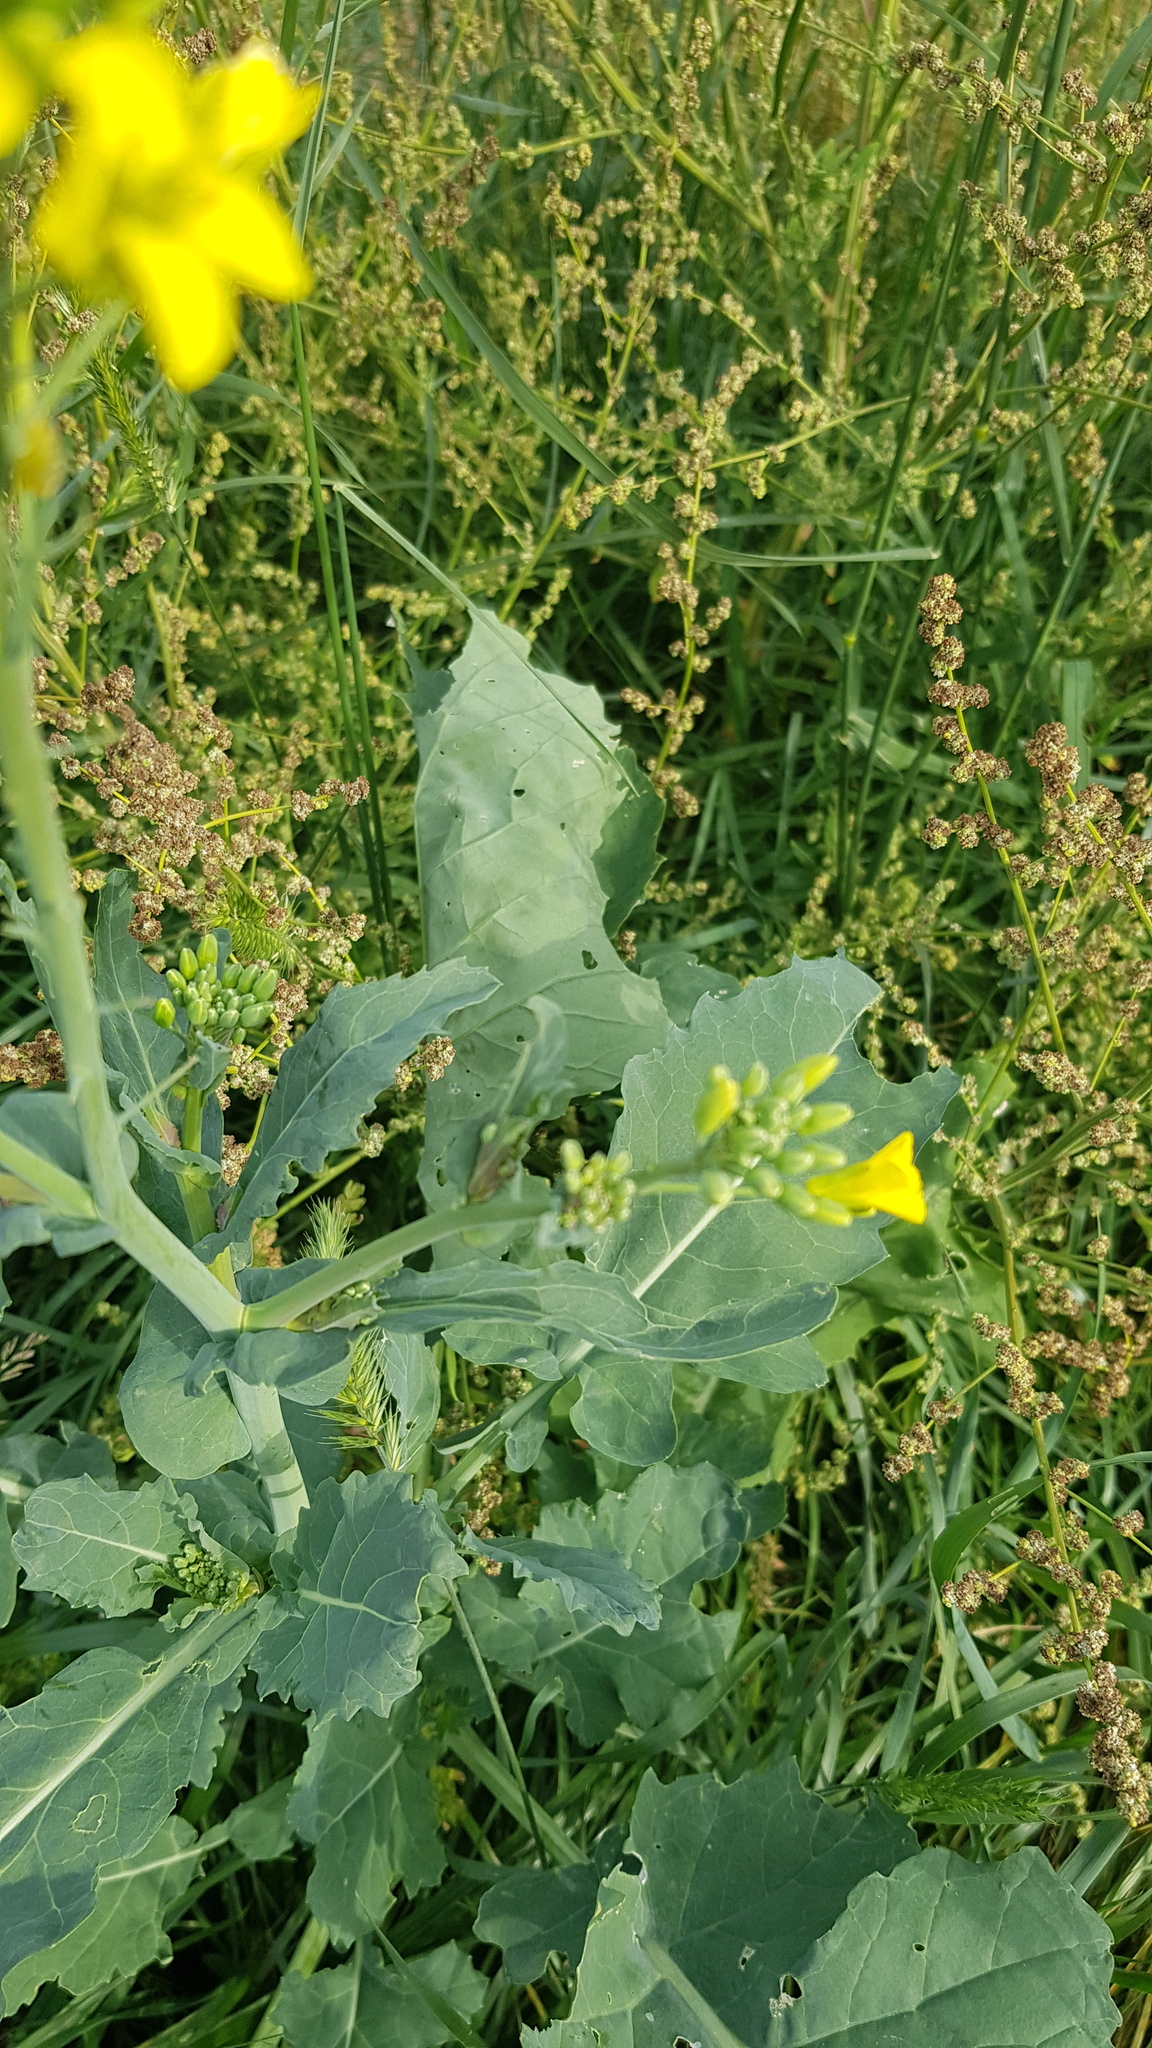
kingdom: Plantae
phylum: Tracheophyta
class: Magnoliopsida
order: Brassicales
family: Brassicaceae
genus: Brassica
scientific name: Brassica napus
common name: Rape
